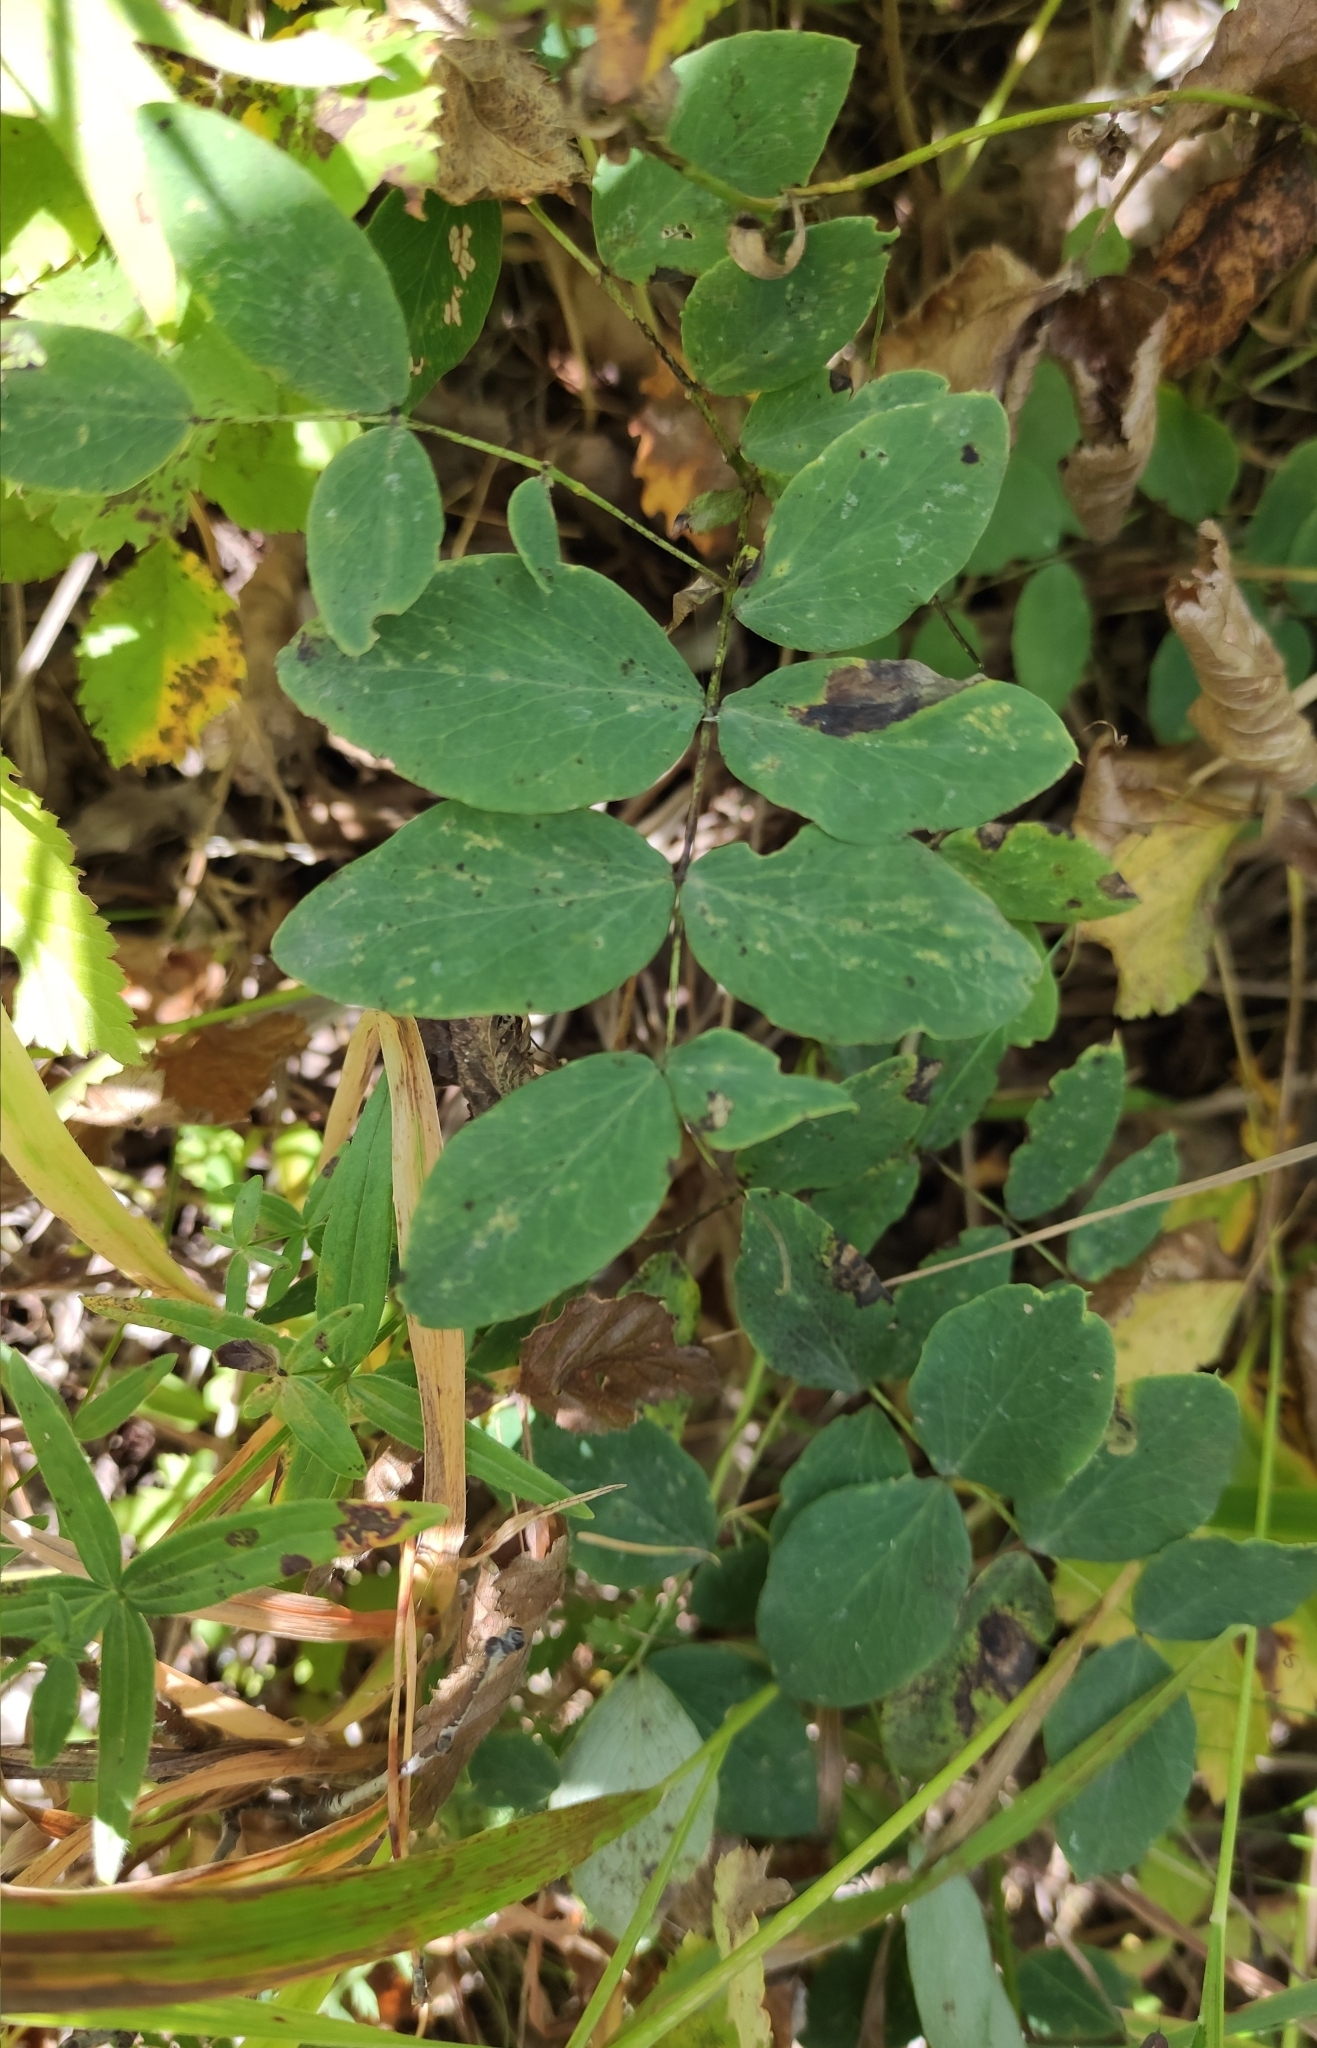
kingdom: Plantae
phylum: Tracheophyta
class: Magnoliopsida
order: Fabales
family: Fabaceae
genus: Lathyrus
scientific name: Lathyrus humilis
